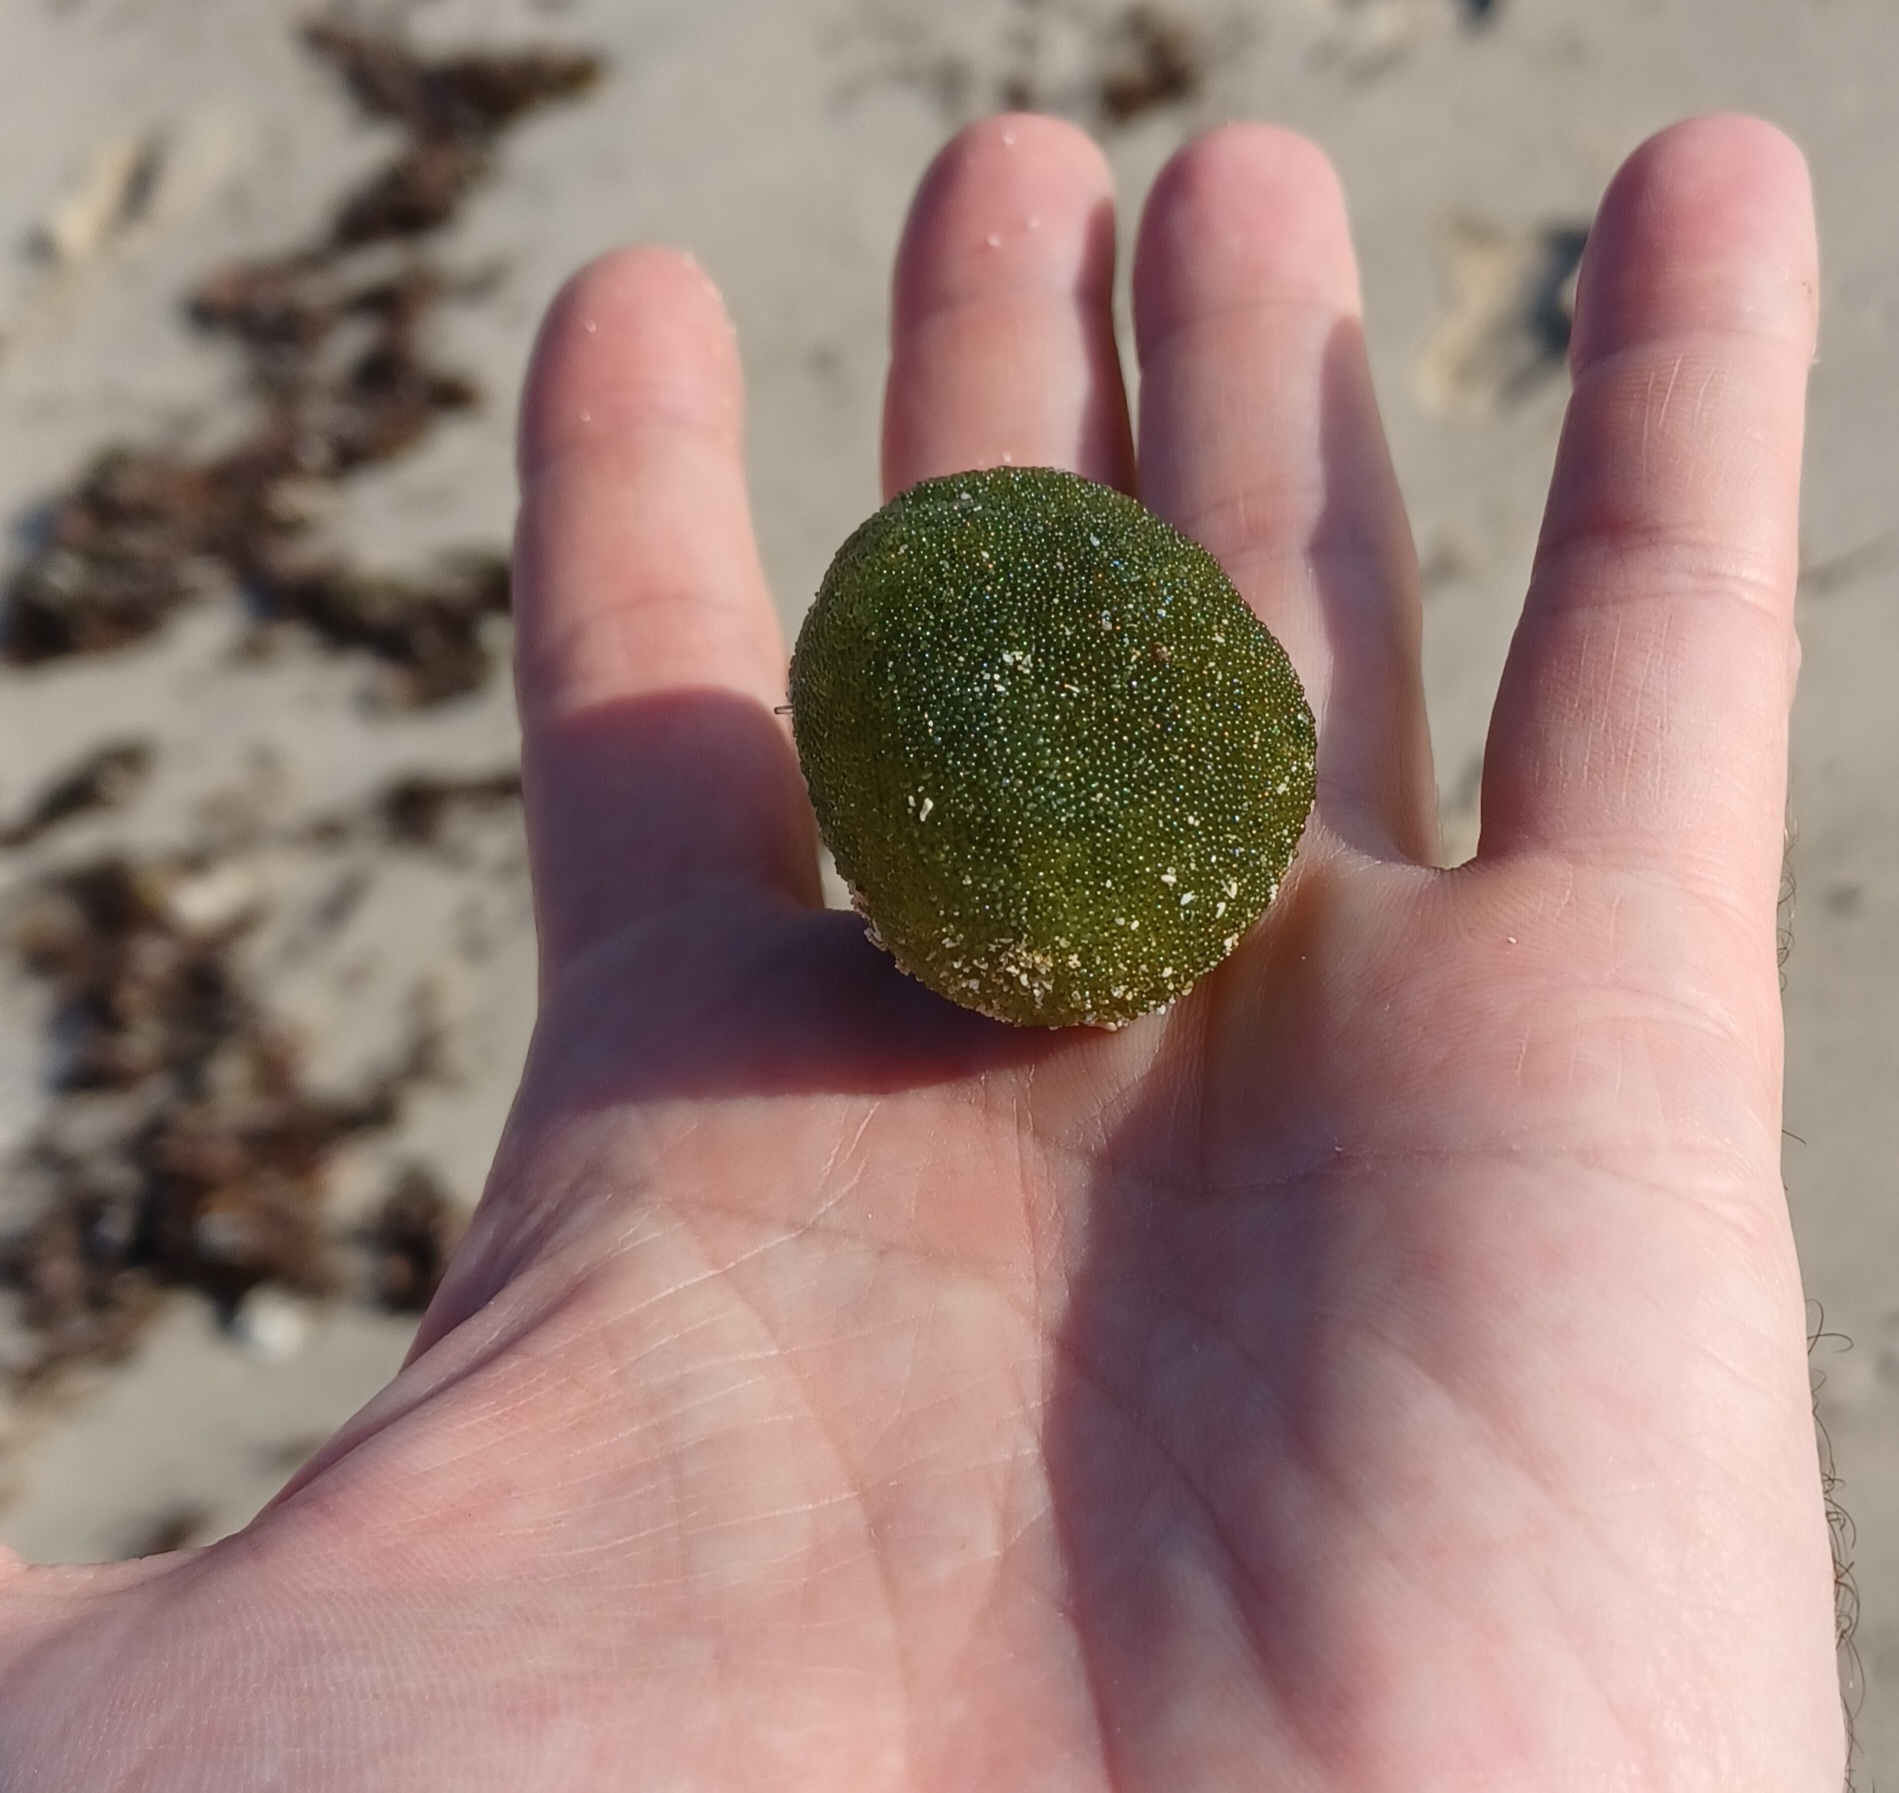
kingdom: Plantae
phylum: Chlorophyta
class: Ulvophyceae
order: Bryopsidales
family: Codiaceae
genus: Codium
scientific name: Codium mamillosum
